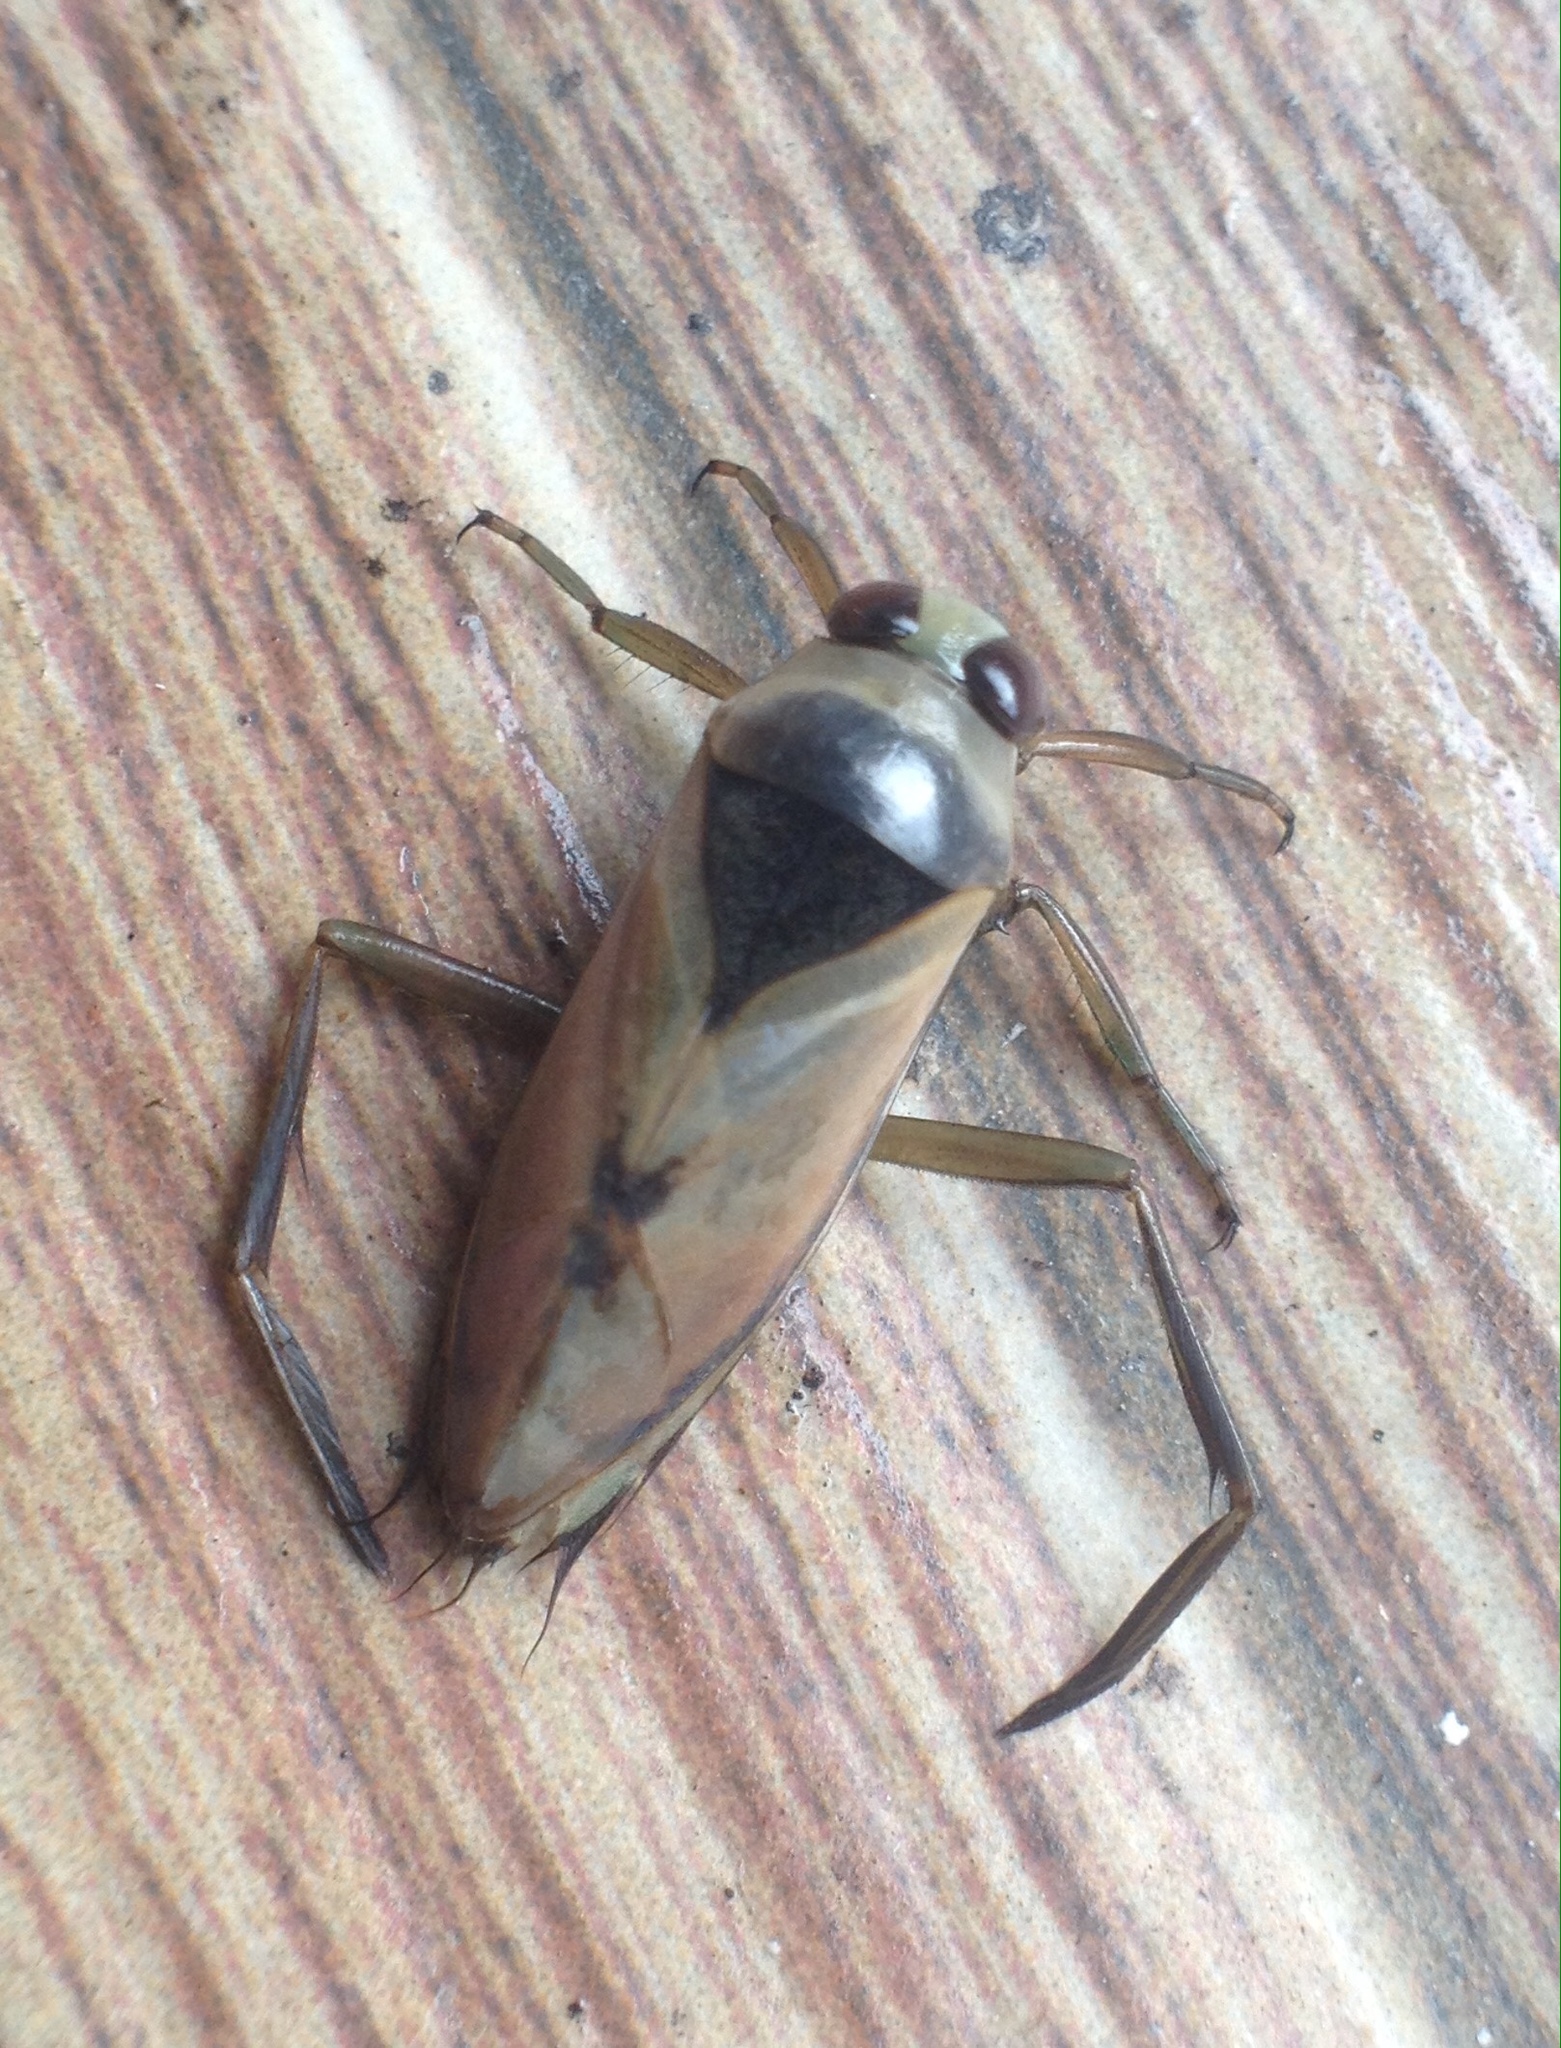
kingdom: Animalia
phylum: Arthropoda
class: Insecta
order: Hemiptera
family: Notonectidae
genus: Notonecta
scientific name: Notonecta glauca
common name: Common water-boatman
